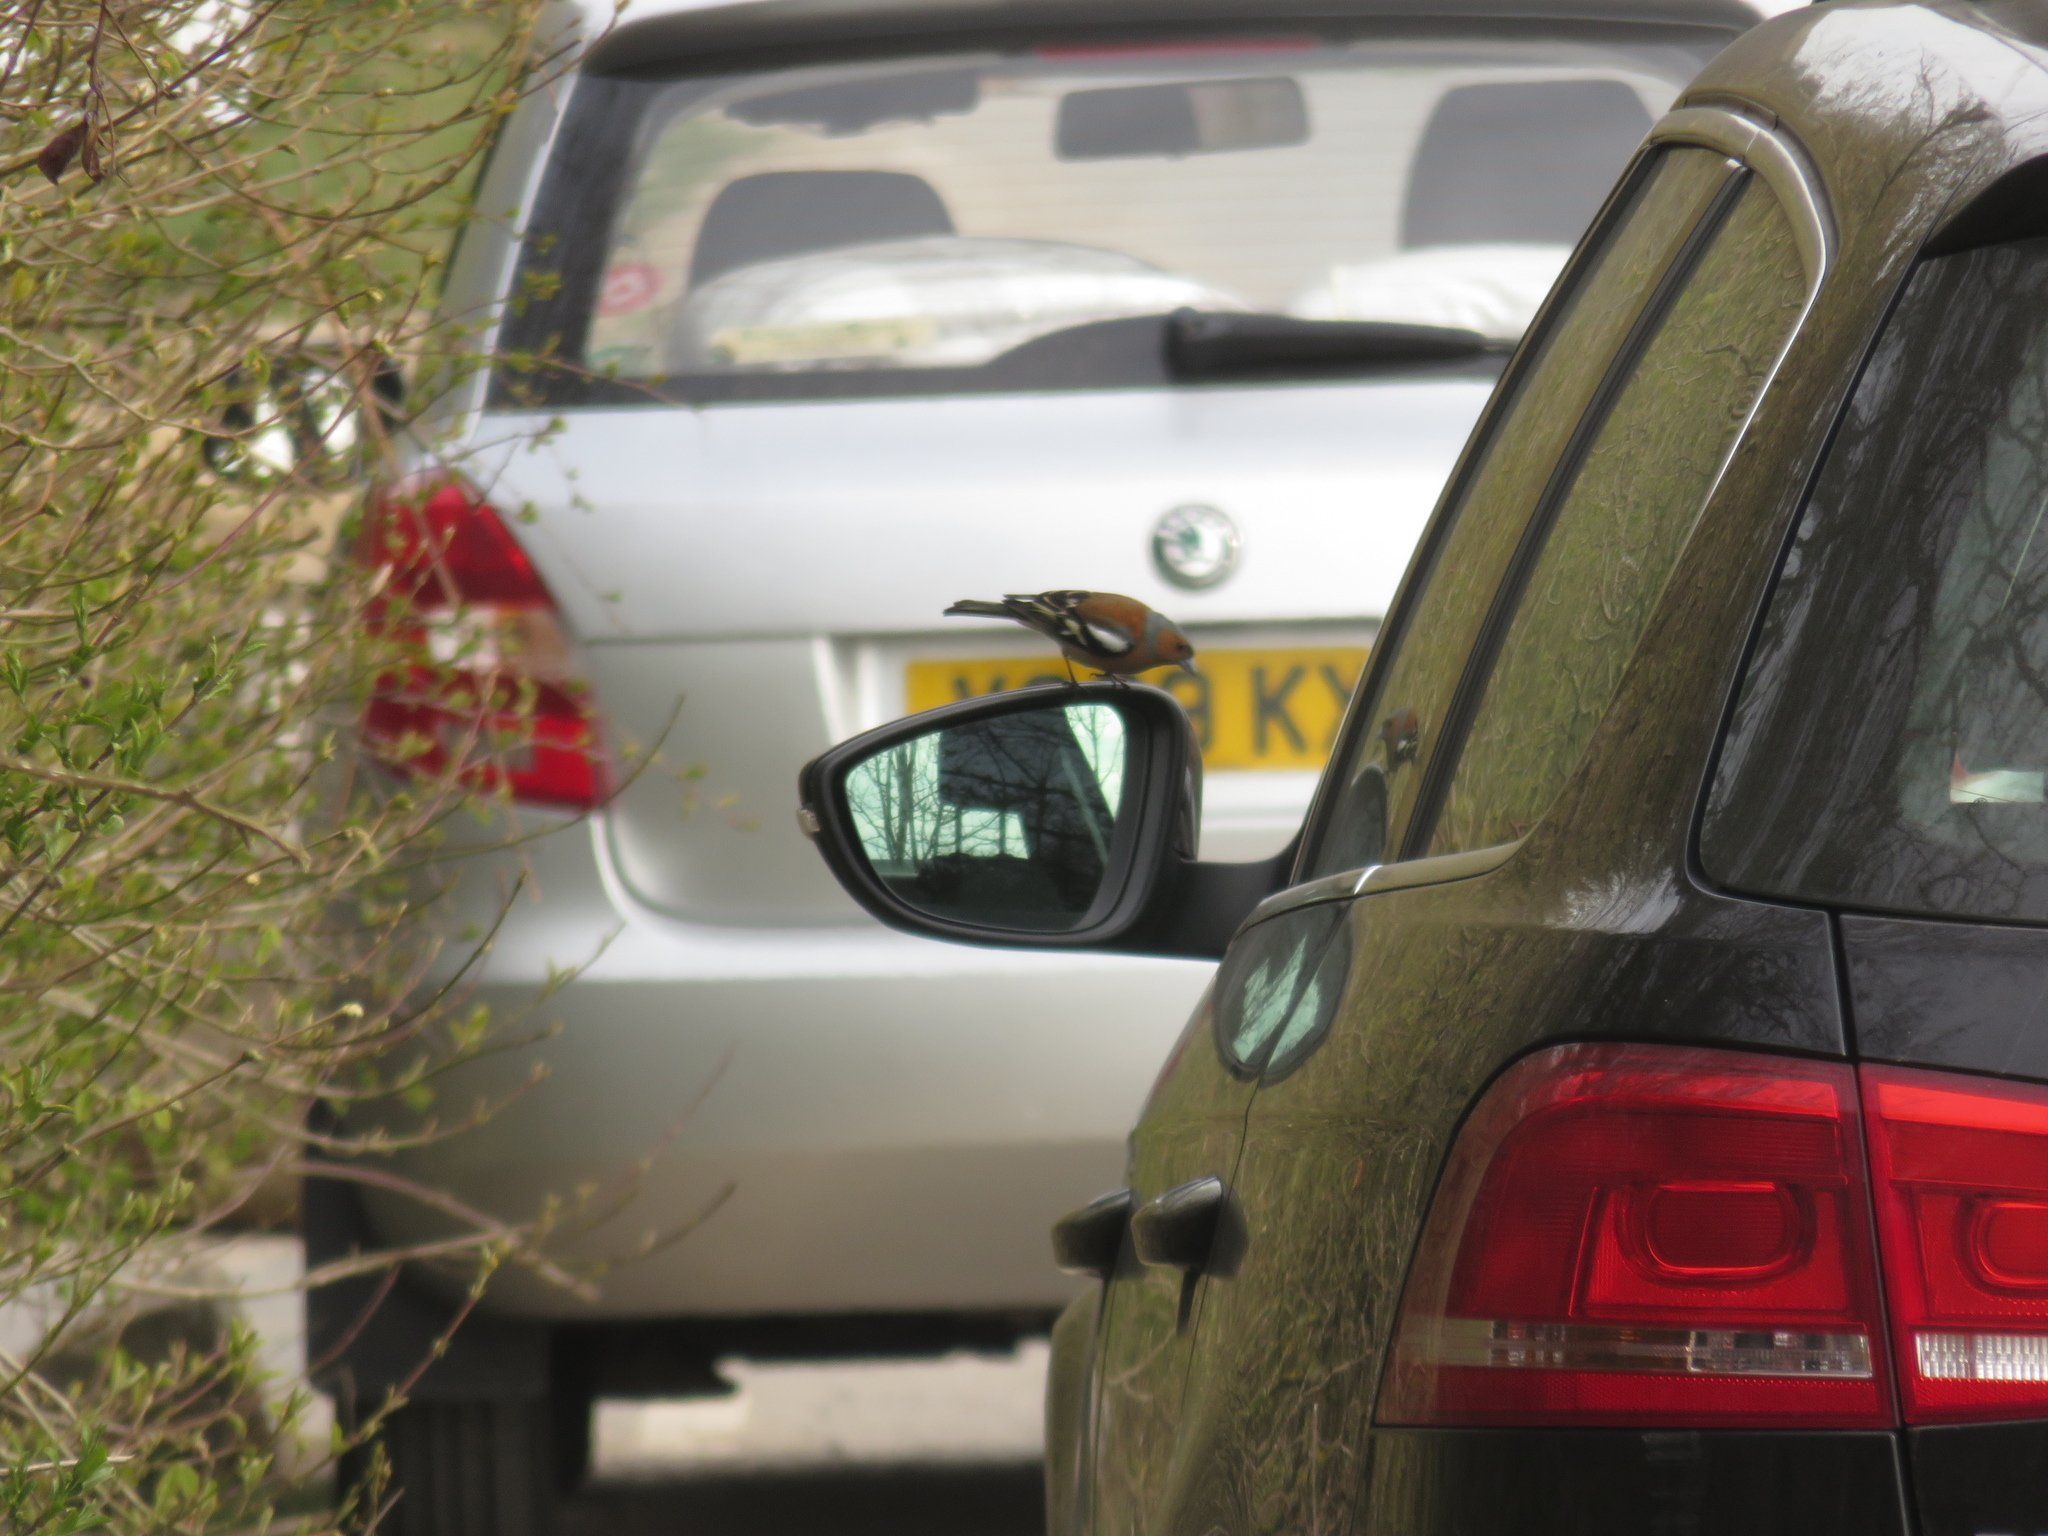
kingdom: Animalia
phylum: Chordata
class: Aves
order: Passeriformes
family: Fringillidae
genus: Fringilla
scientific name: Fringilla coelebs
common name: Common chaffinch
